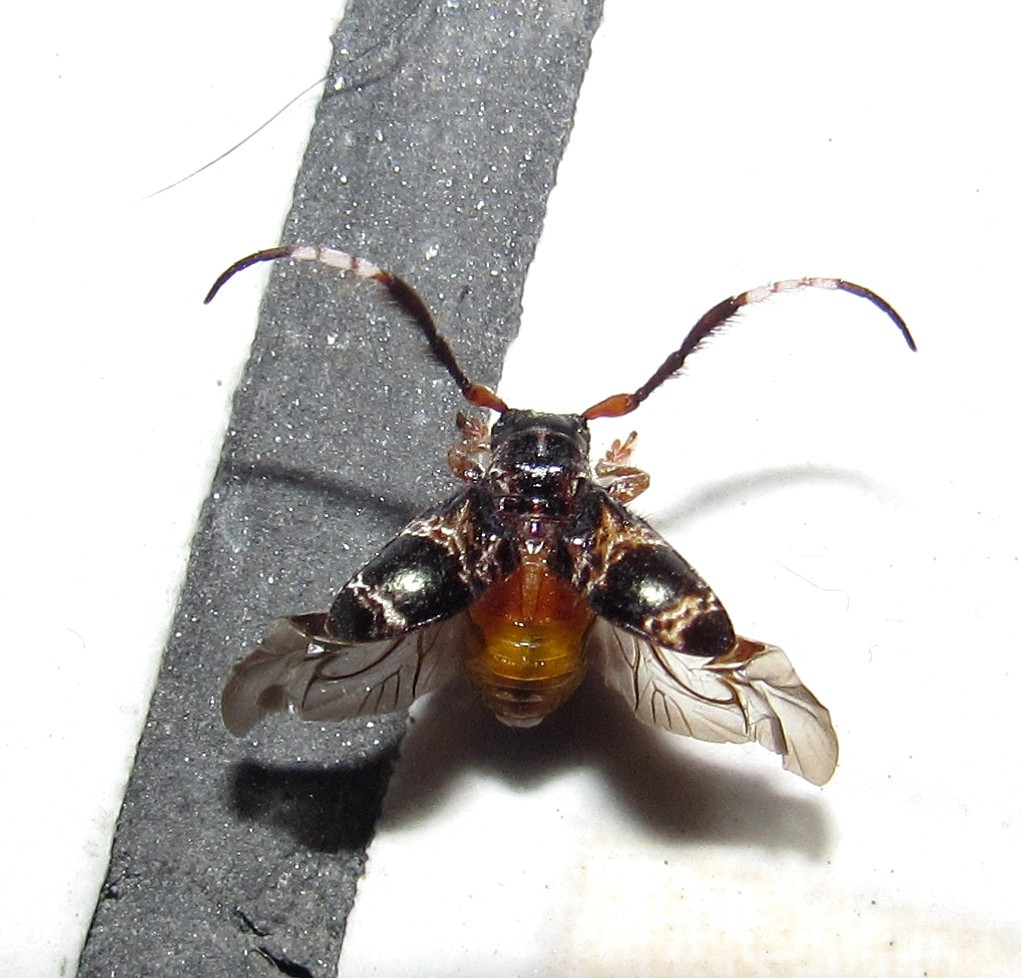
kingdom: Animalia
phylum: Arthropoda
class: Insecta
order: Coleoptera
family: Cerambycidae
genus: Tessarecphora
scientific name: Tessarecphora arachnoides
